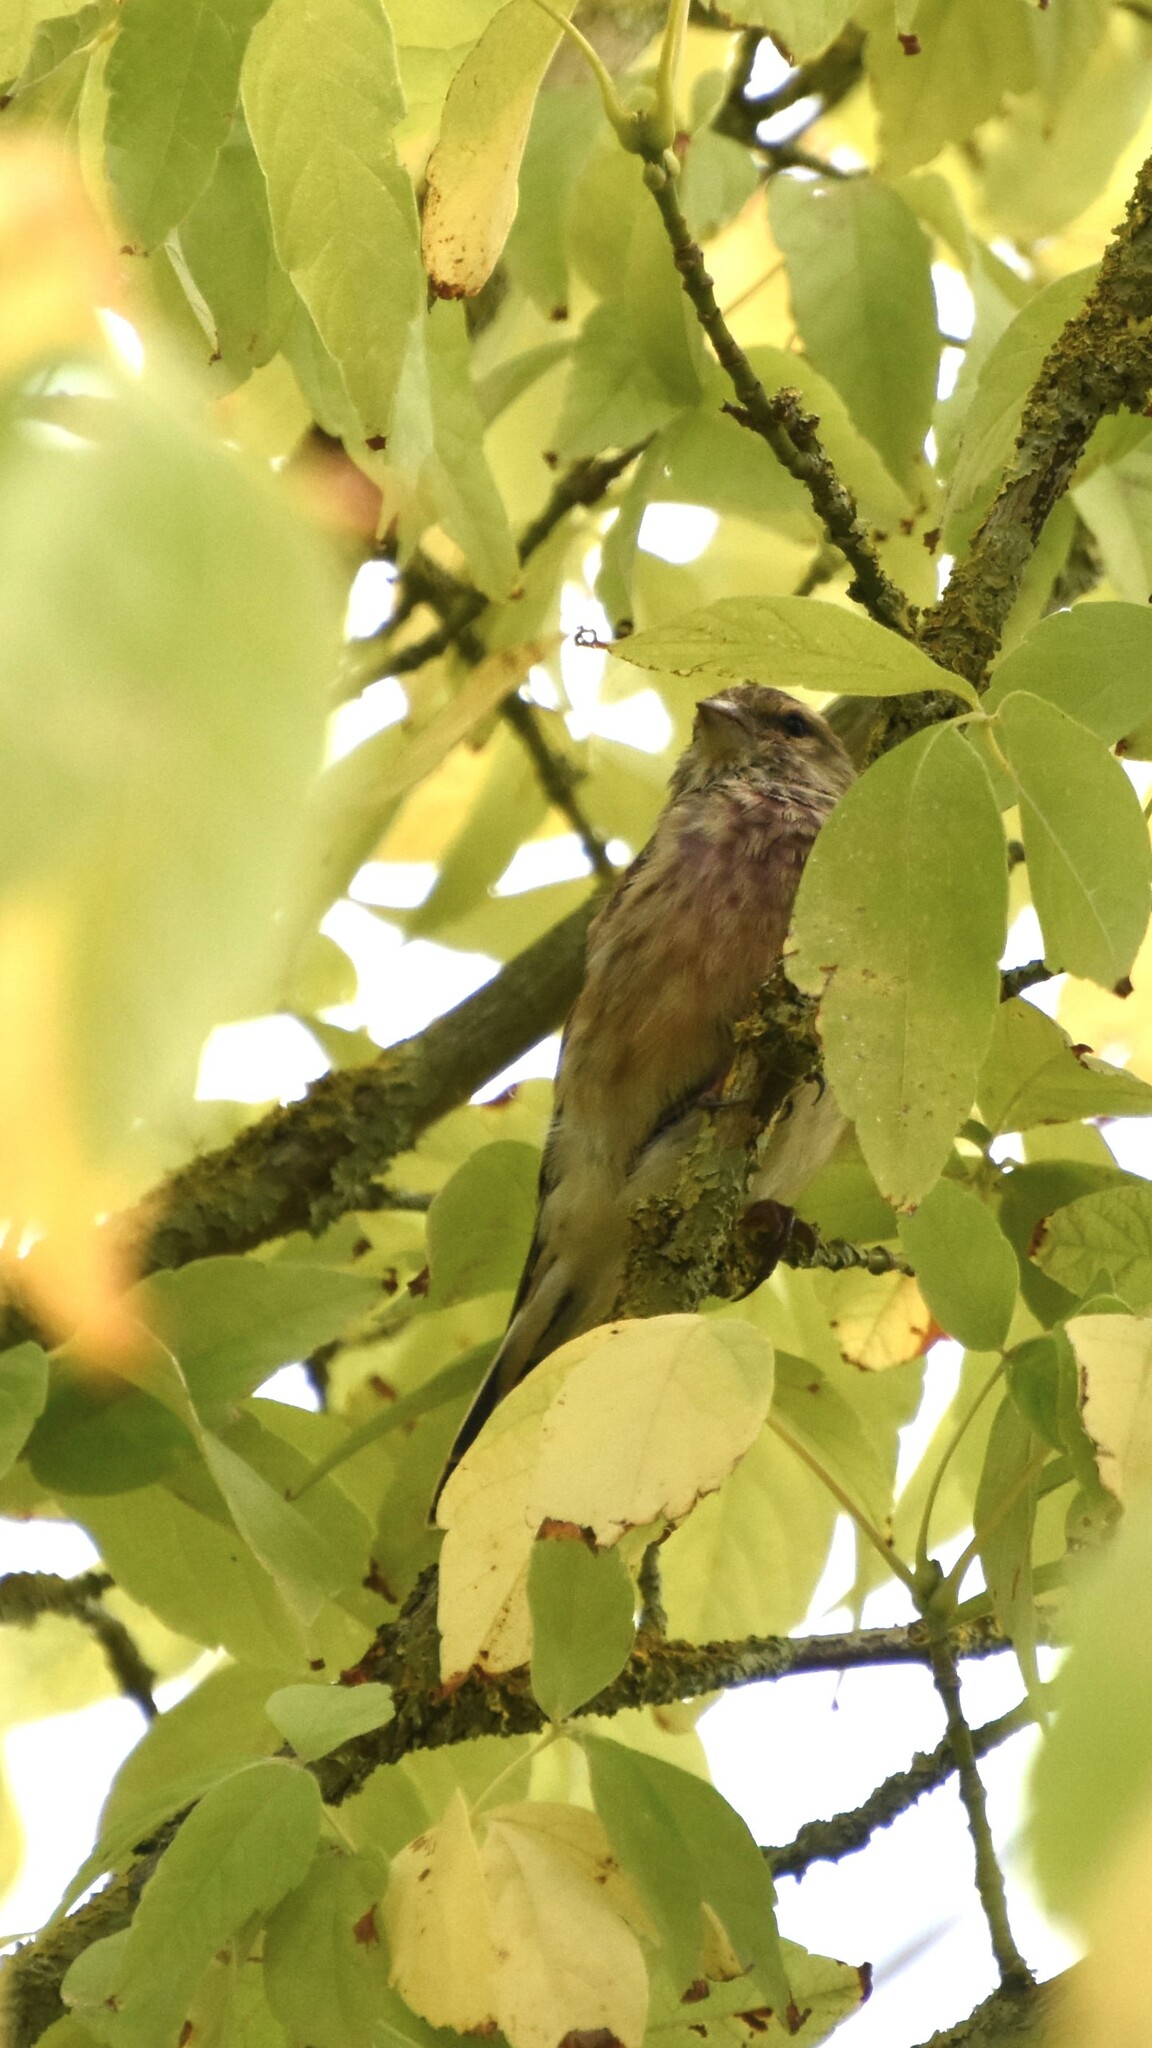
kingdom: Animalia
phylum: Chordata
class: Aves
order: Passeriformes
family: Fringillidae
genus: Linaria
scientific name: Linaria cannabina
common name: Common linnet
